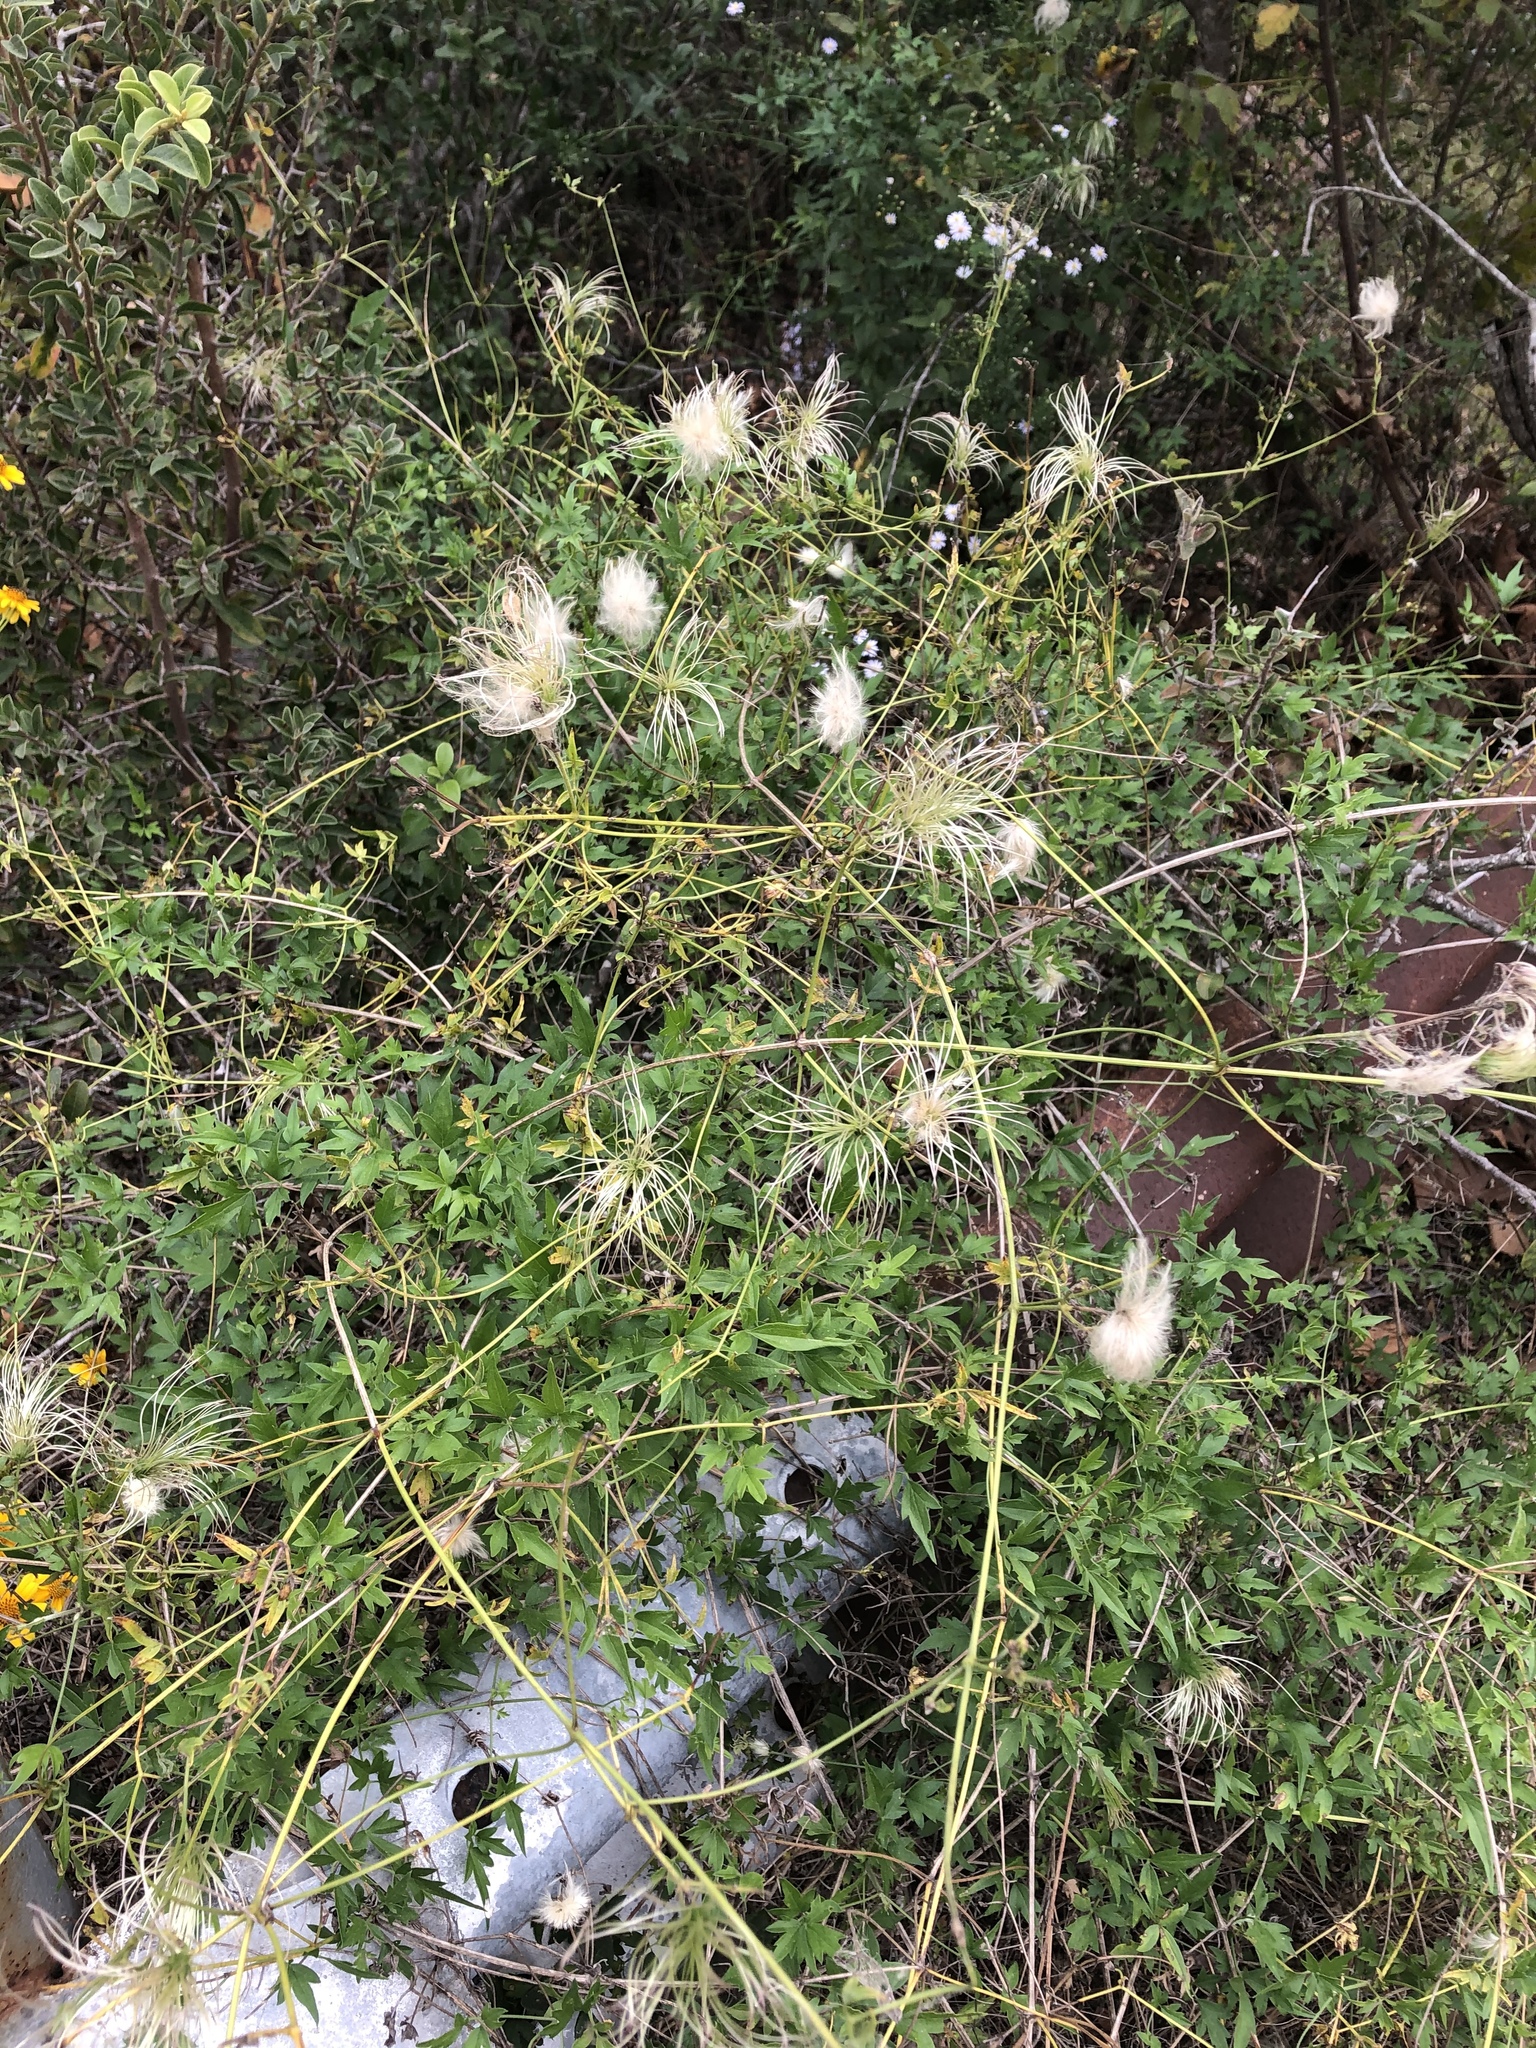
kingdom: Plantae
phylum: Tracheophyta
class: Magnoliopsida
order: Ranunculales
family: Ranunculaceae
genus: Clematis
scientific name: Clematis drummondii
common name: Texas virgin's bower
